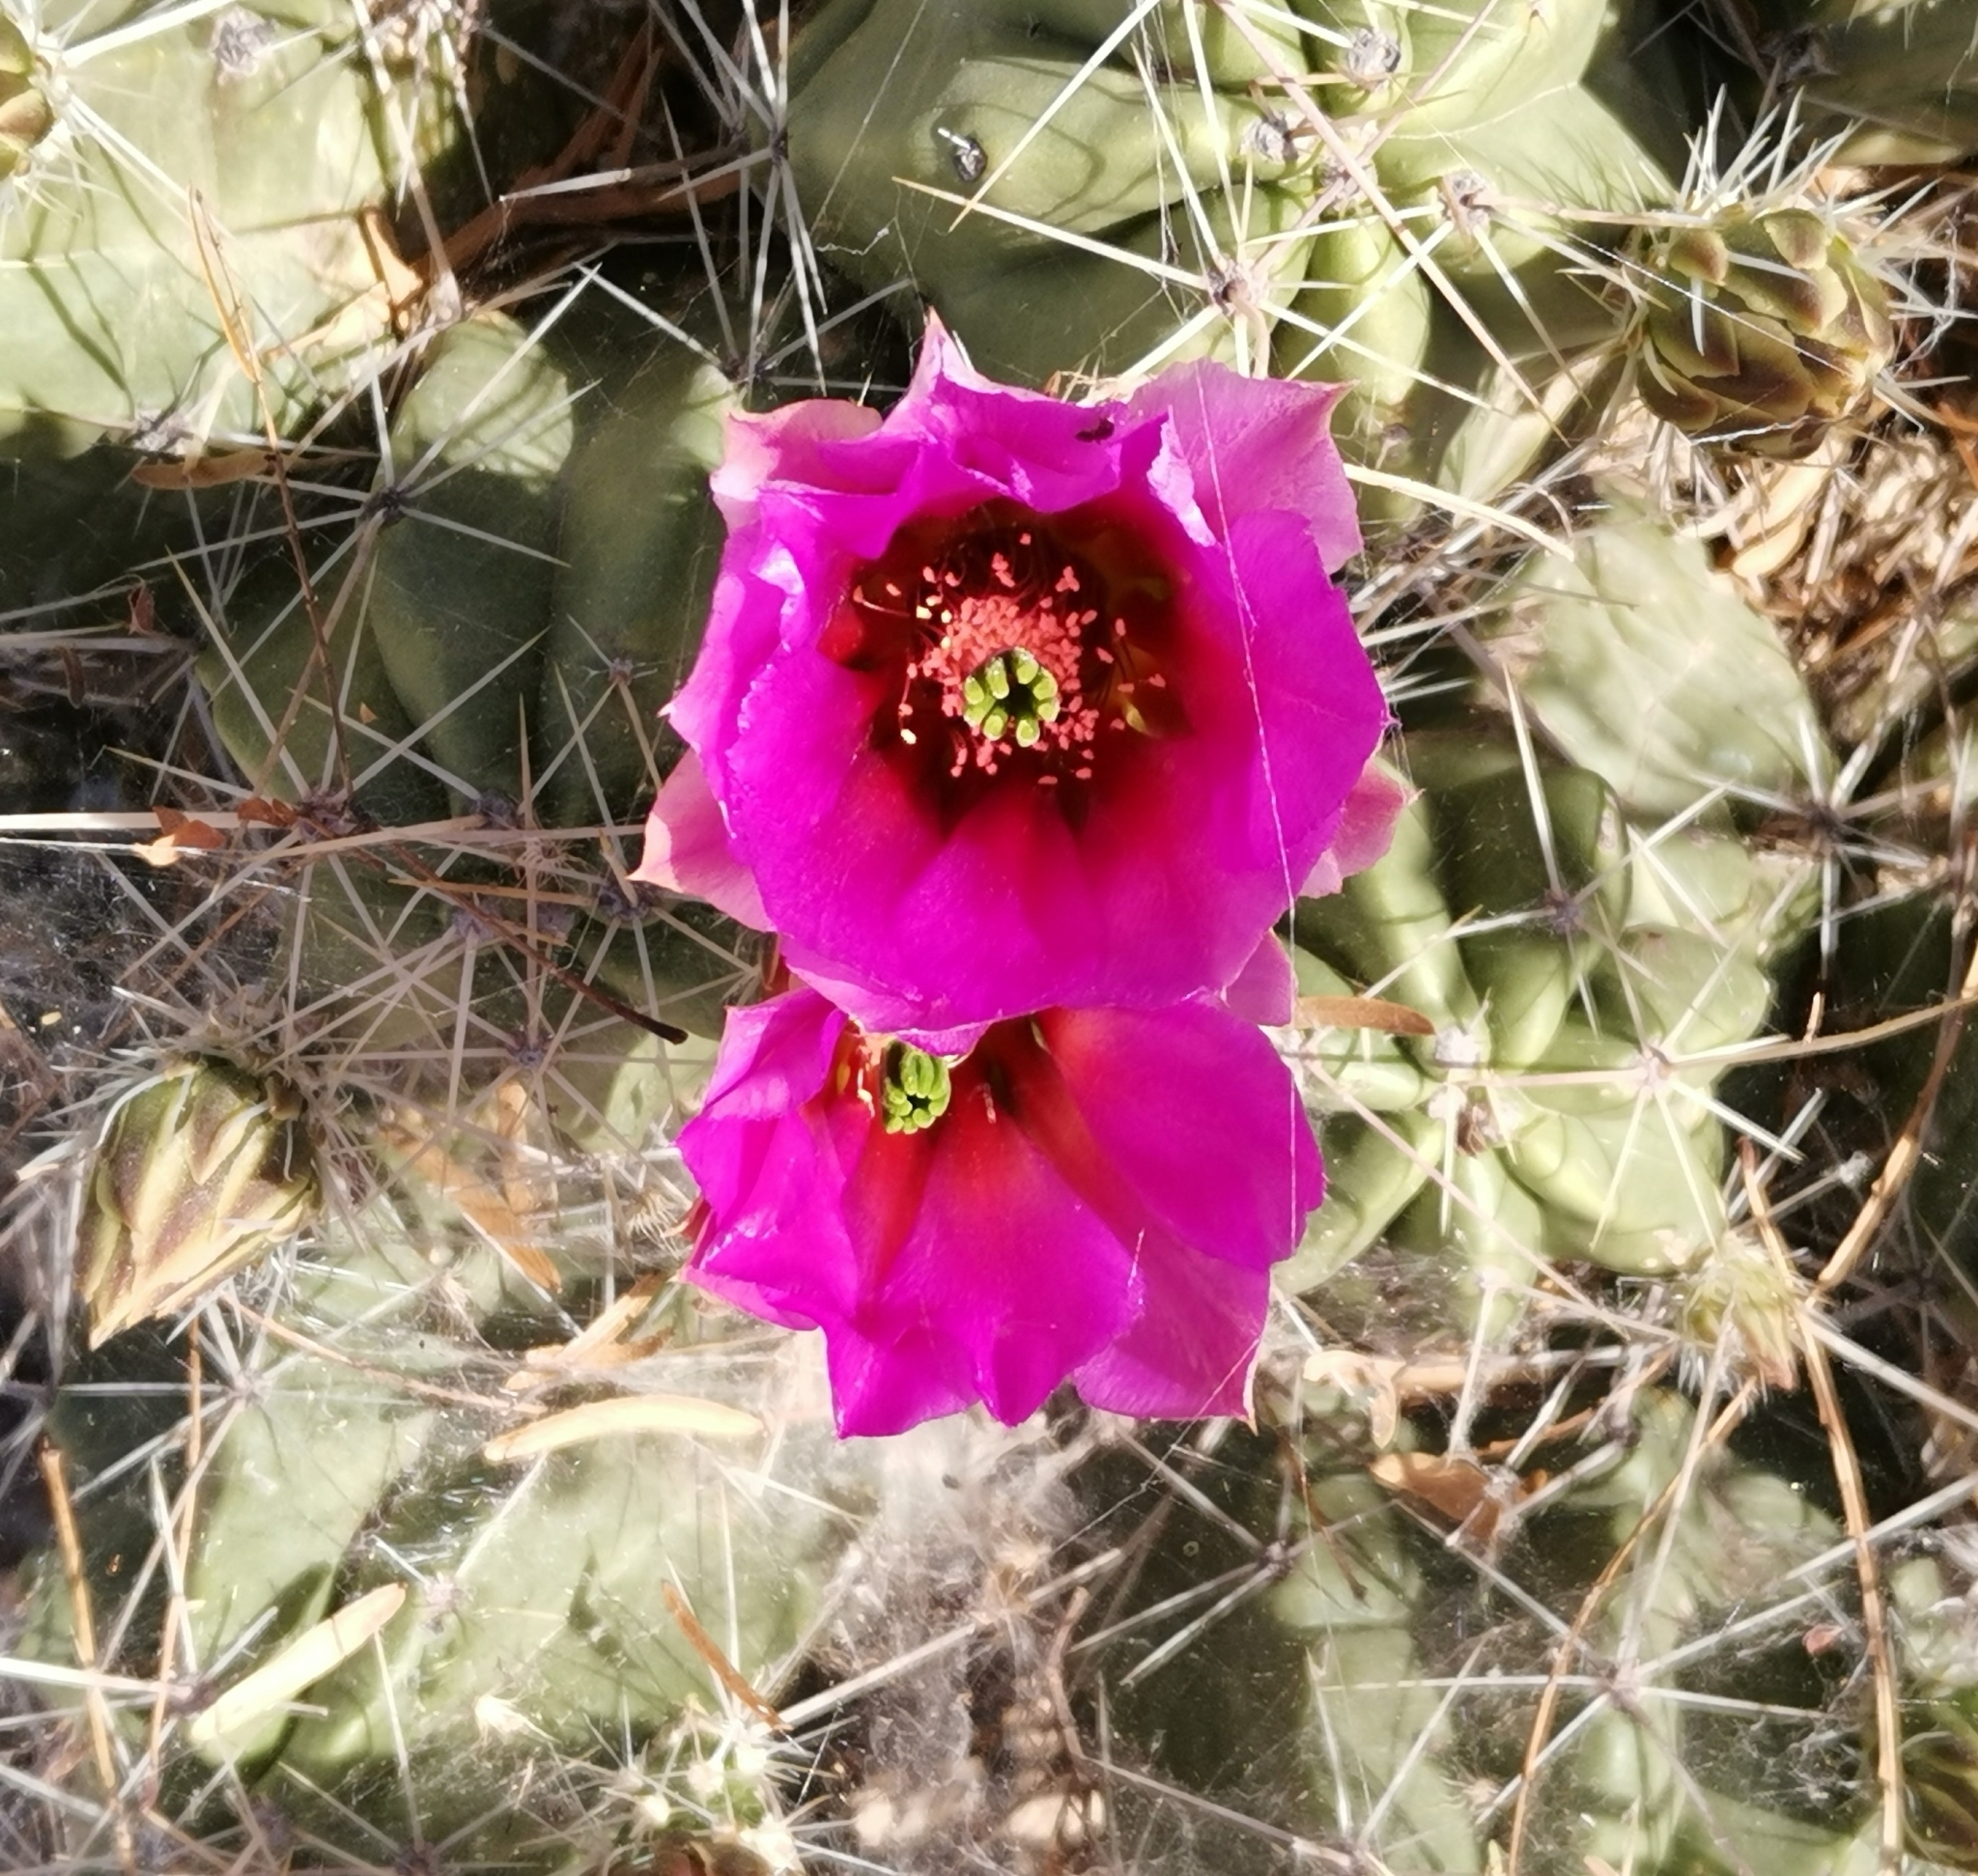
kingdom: Plantae
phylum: Tracheophyta
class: Magnoliopsida
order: Caryophyllales
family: Cactaceae
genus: Echinocereus
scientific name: Echinocereus enneacanthus
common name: Pitaya
